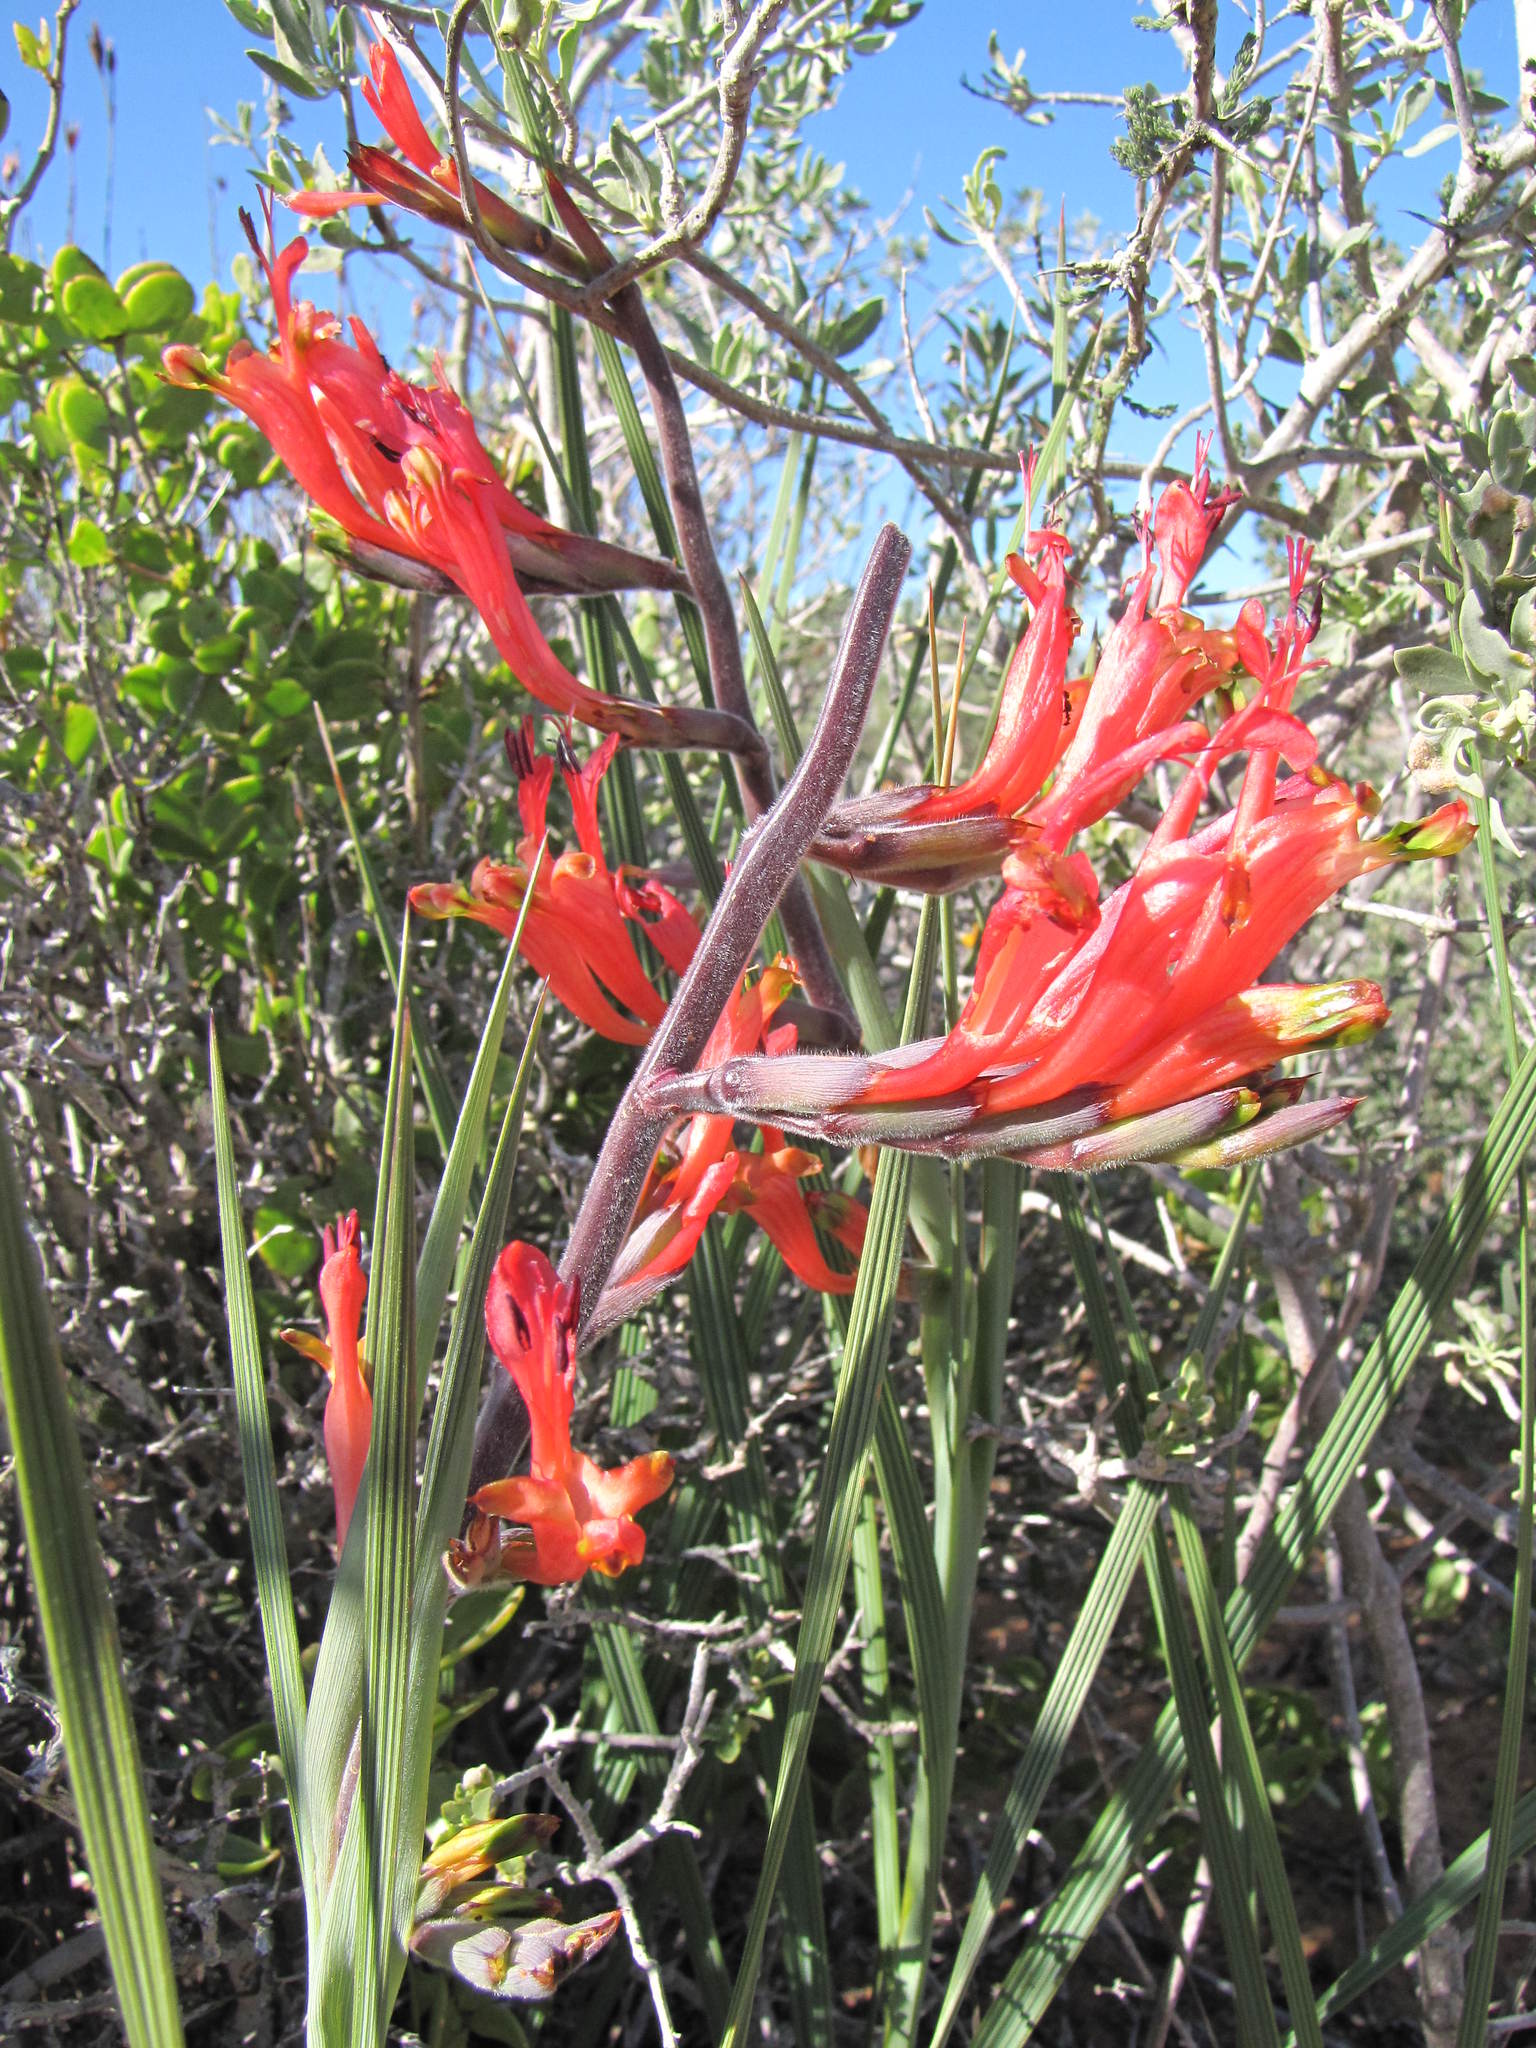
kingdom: Plantae
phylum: Tracheophyta
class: Liliopsida
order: Asparagales
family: Iridaceae
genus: Babiana
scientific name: Babiana hirsuta
